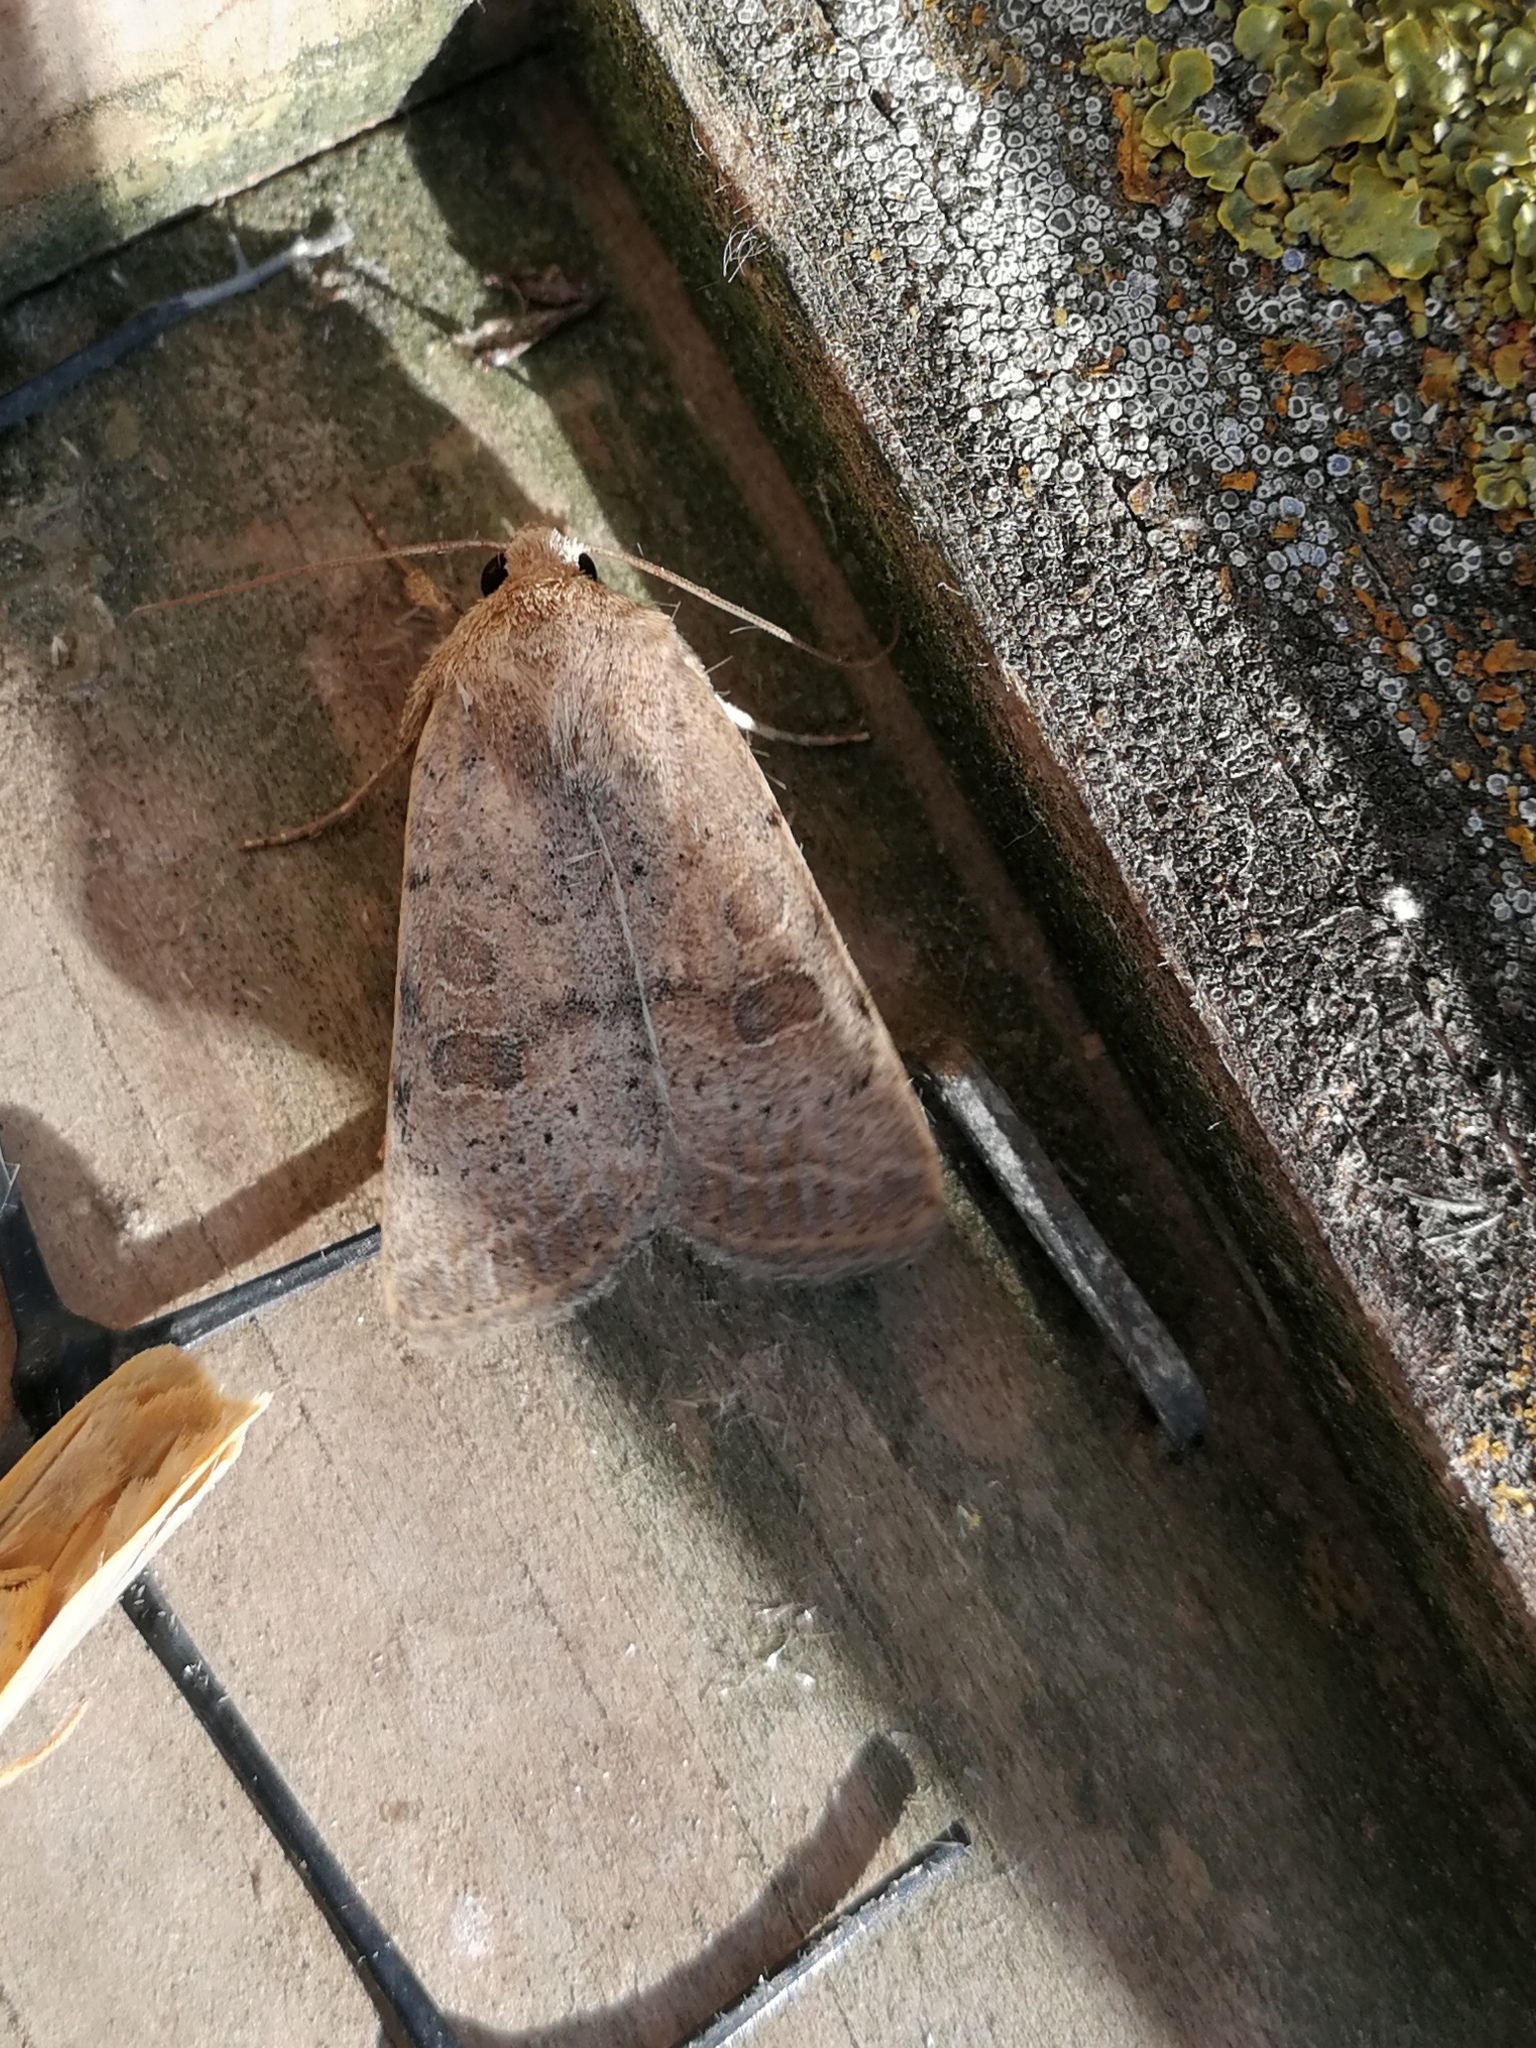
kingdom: Animalia
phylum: Arthropoda
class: Insecta
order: Lepidoptera
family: Noctuidae
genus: Hoplodrina
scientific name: Hoplodrina ambigua
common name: Vine's rustic
